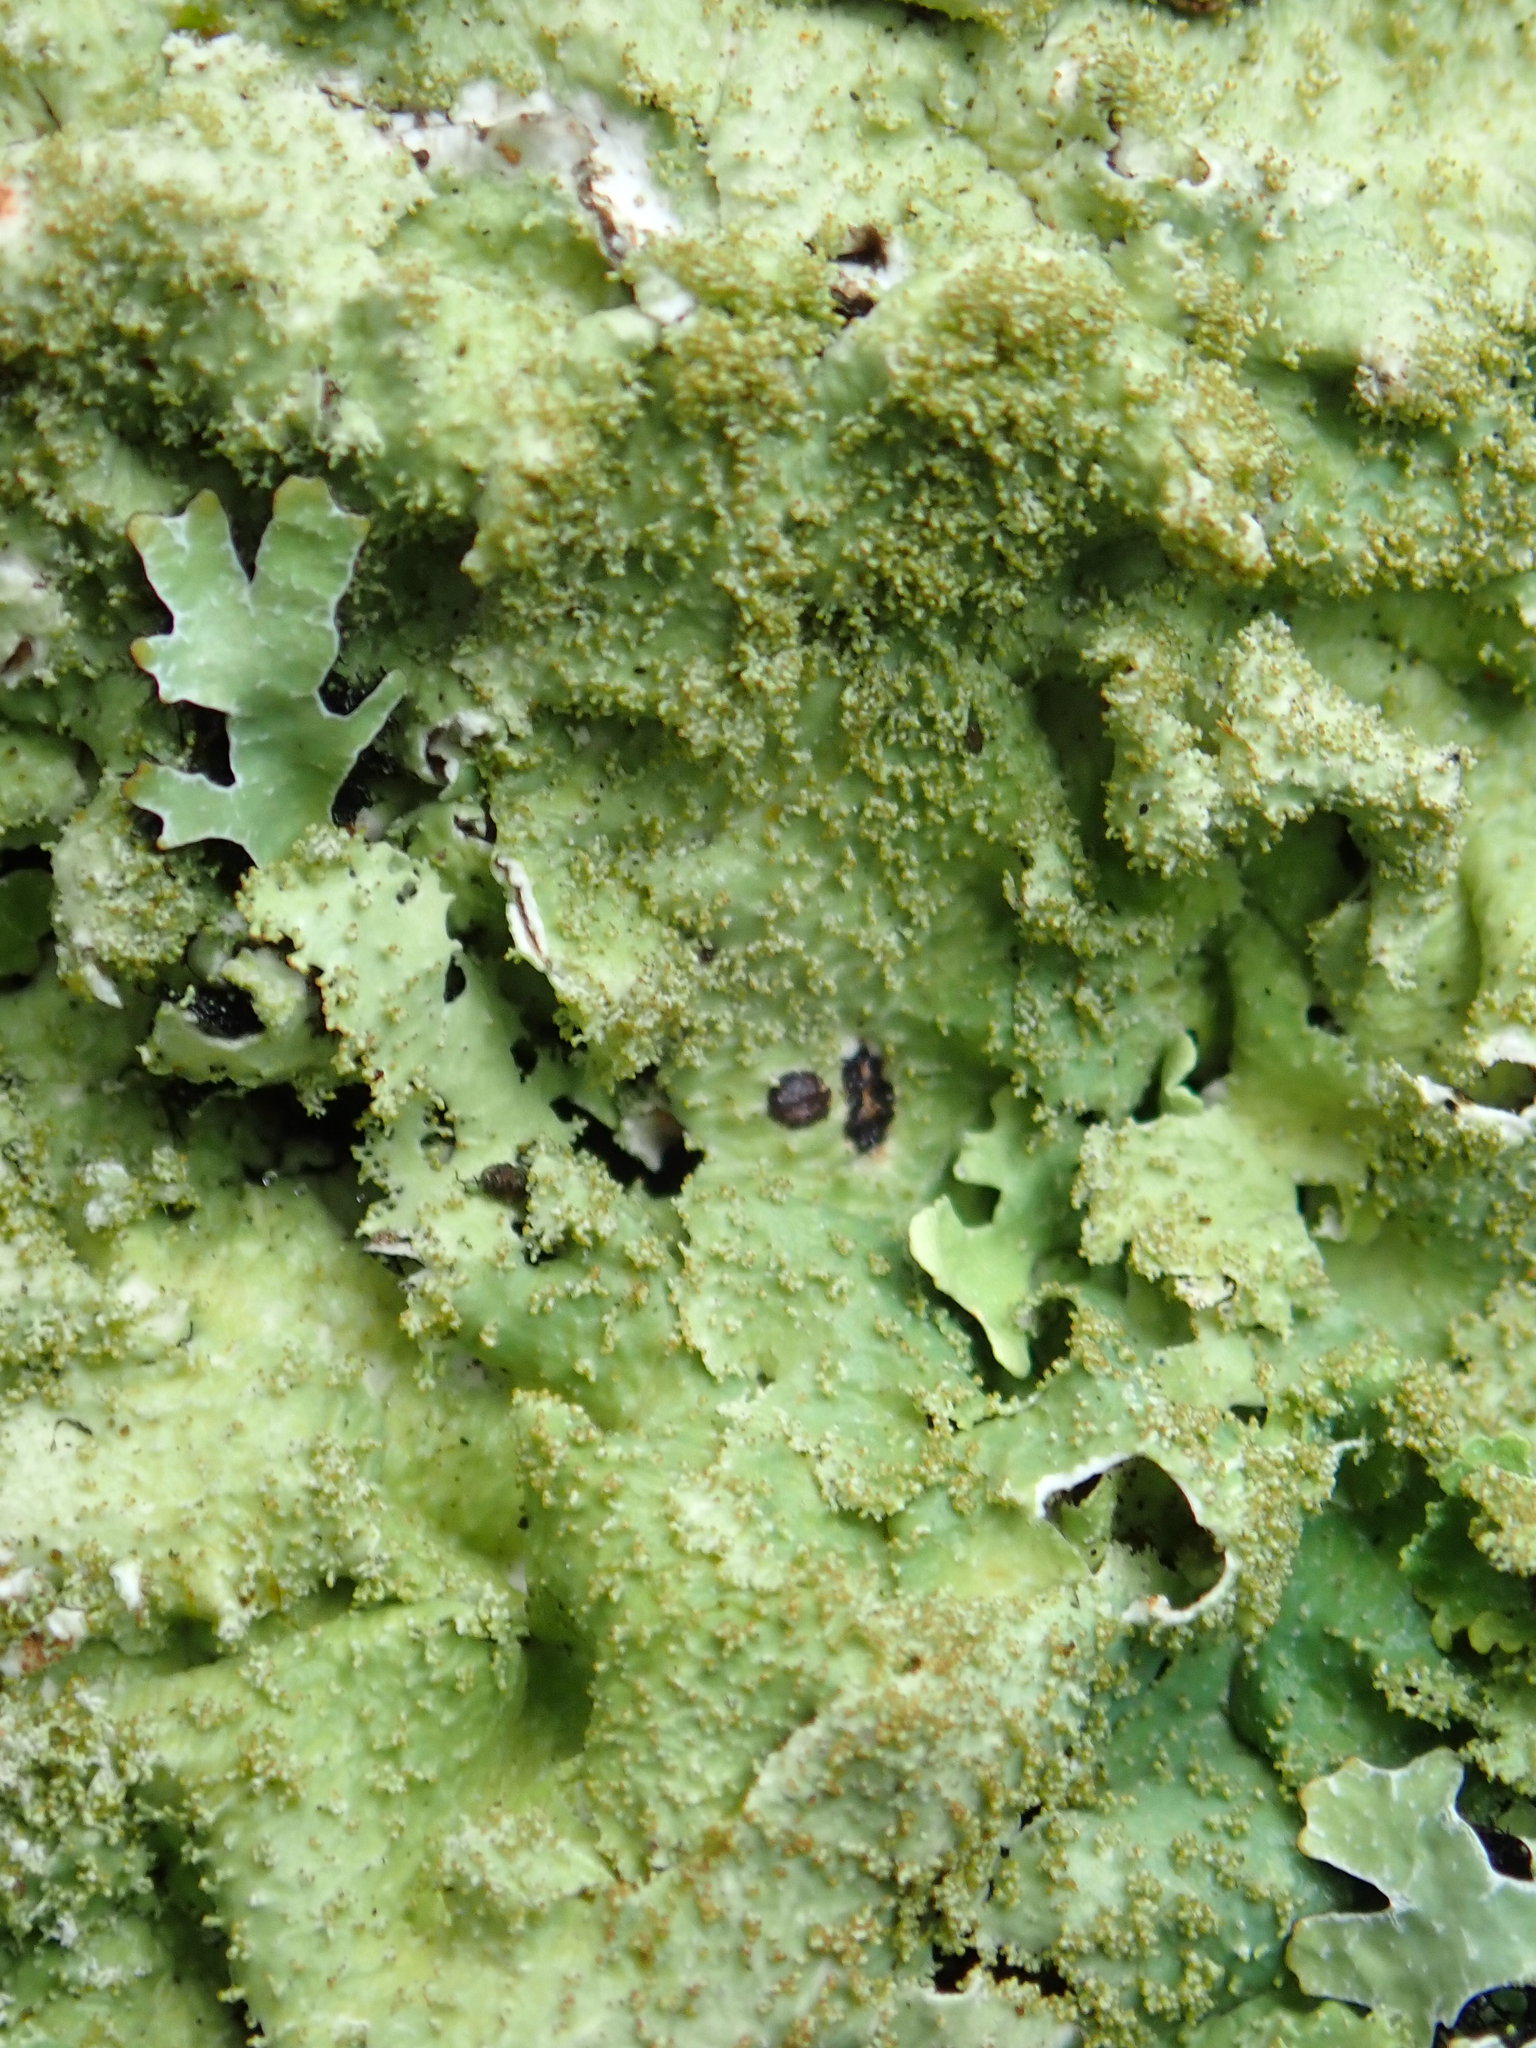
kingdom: Fungi
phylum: Ascomycota
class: Lecanoromycetes
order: Lecanorales
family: Parmeliaceae
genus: Punctelia
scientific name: Punctelia rudecta
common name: Rough speckled shield lichen
